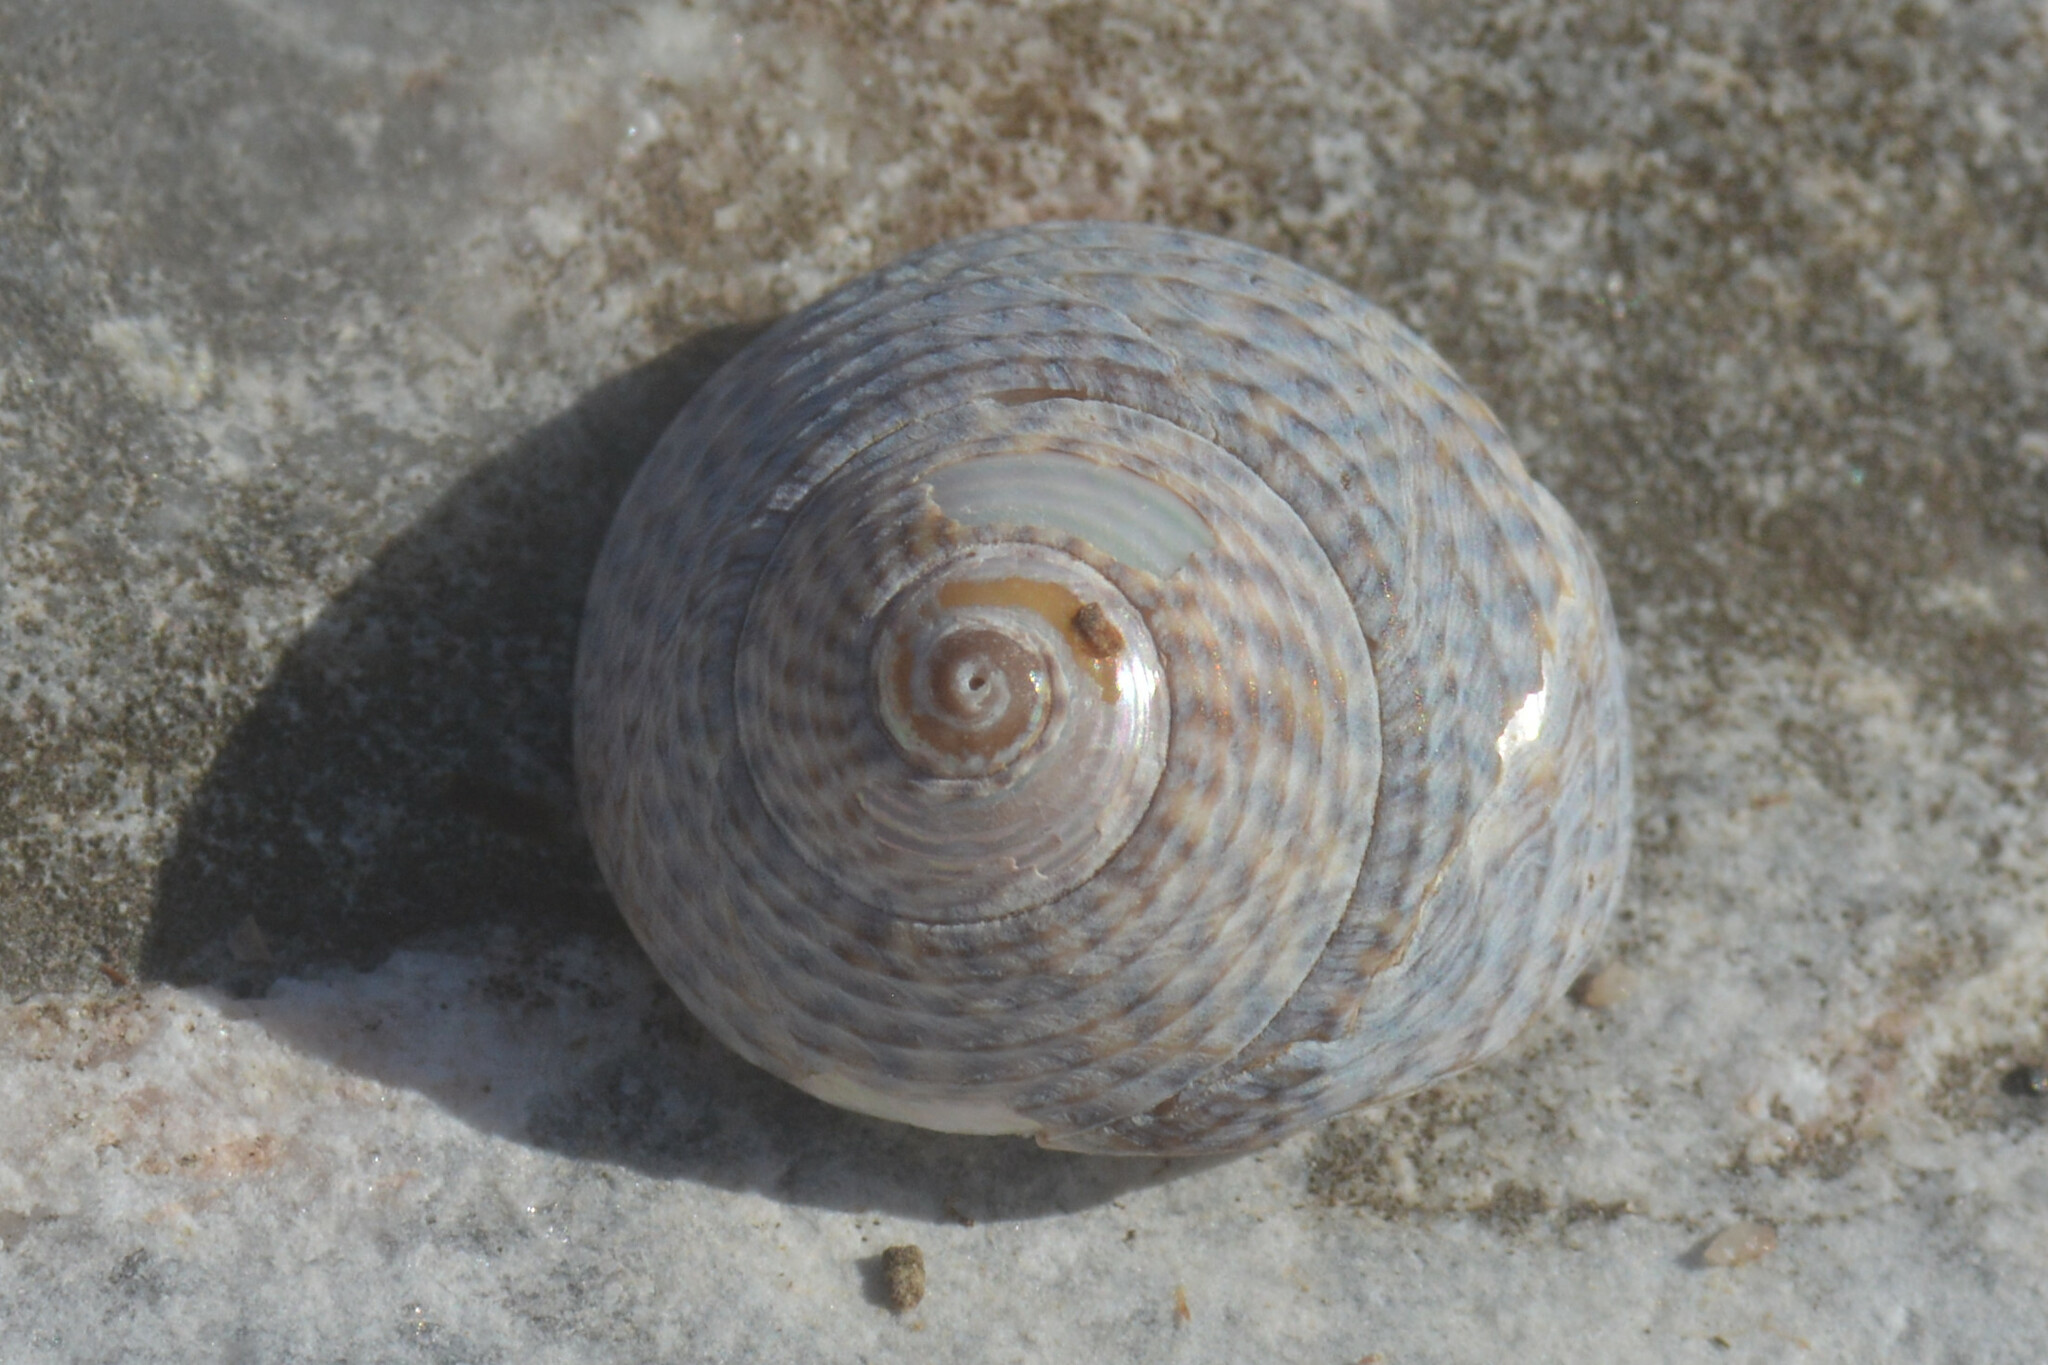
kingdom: Animalia
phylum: Mollusca
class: Gastropoda
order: Trochida
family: Trochidae
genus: Steromphala
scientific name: Steromphala cineraria
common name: Grey top shell
